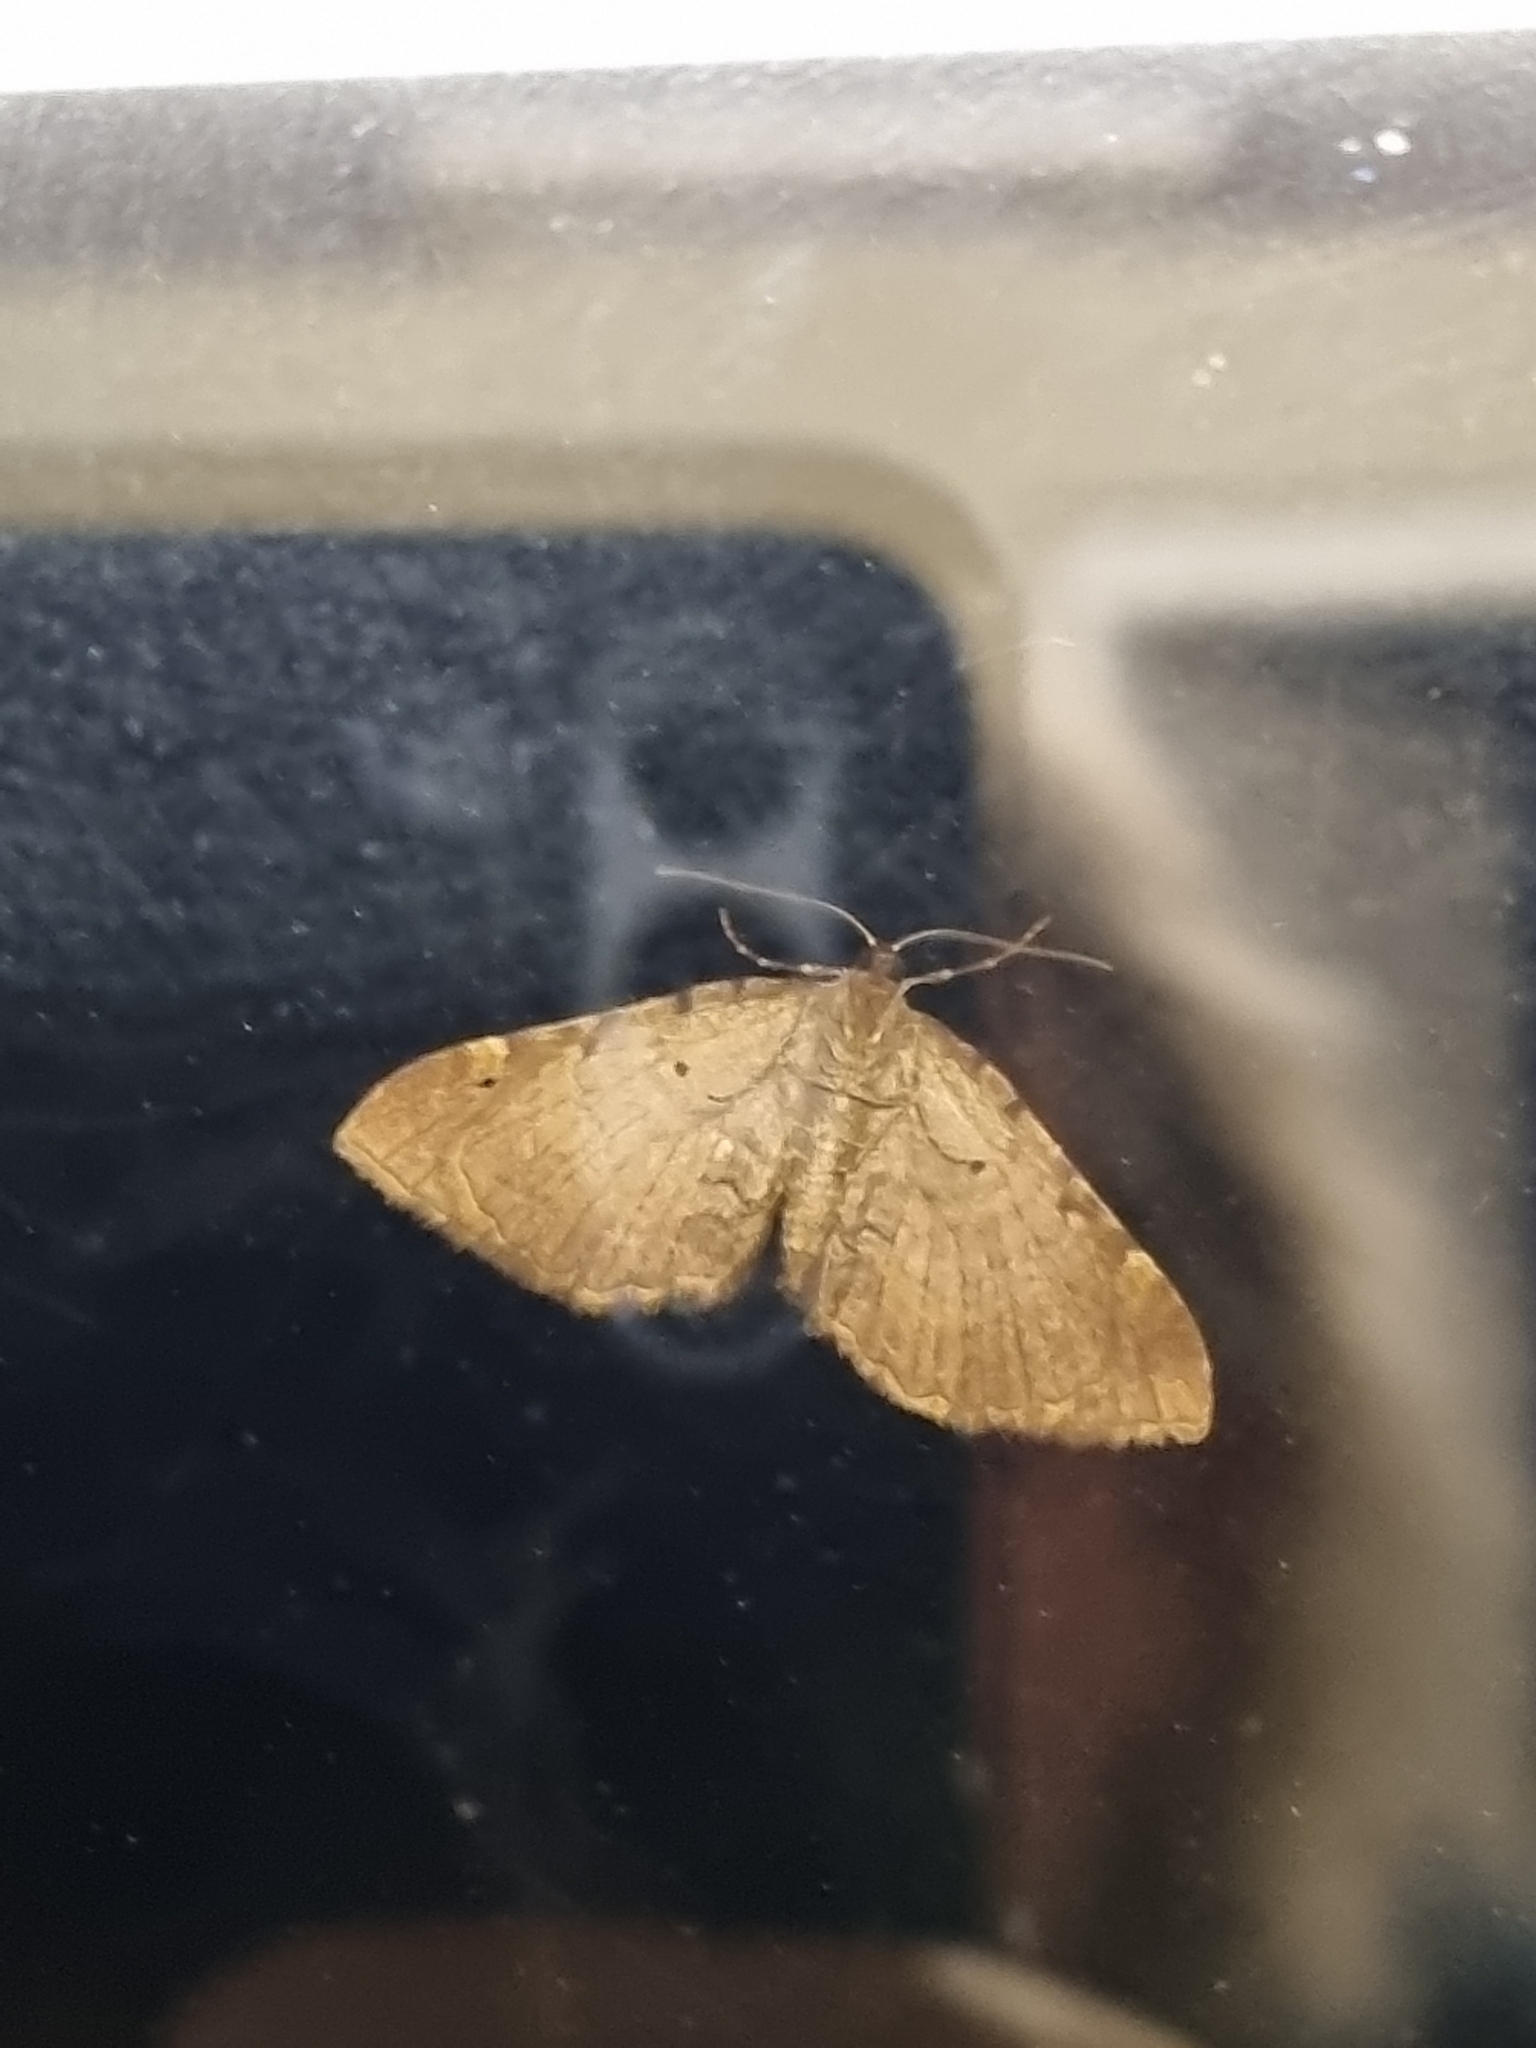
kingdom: Animalia
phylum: Arthropoda
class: Insecta
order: Lepidoptera
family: Geometridae
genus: Anticlea
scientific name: Anticlea badiata
